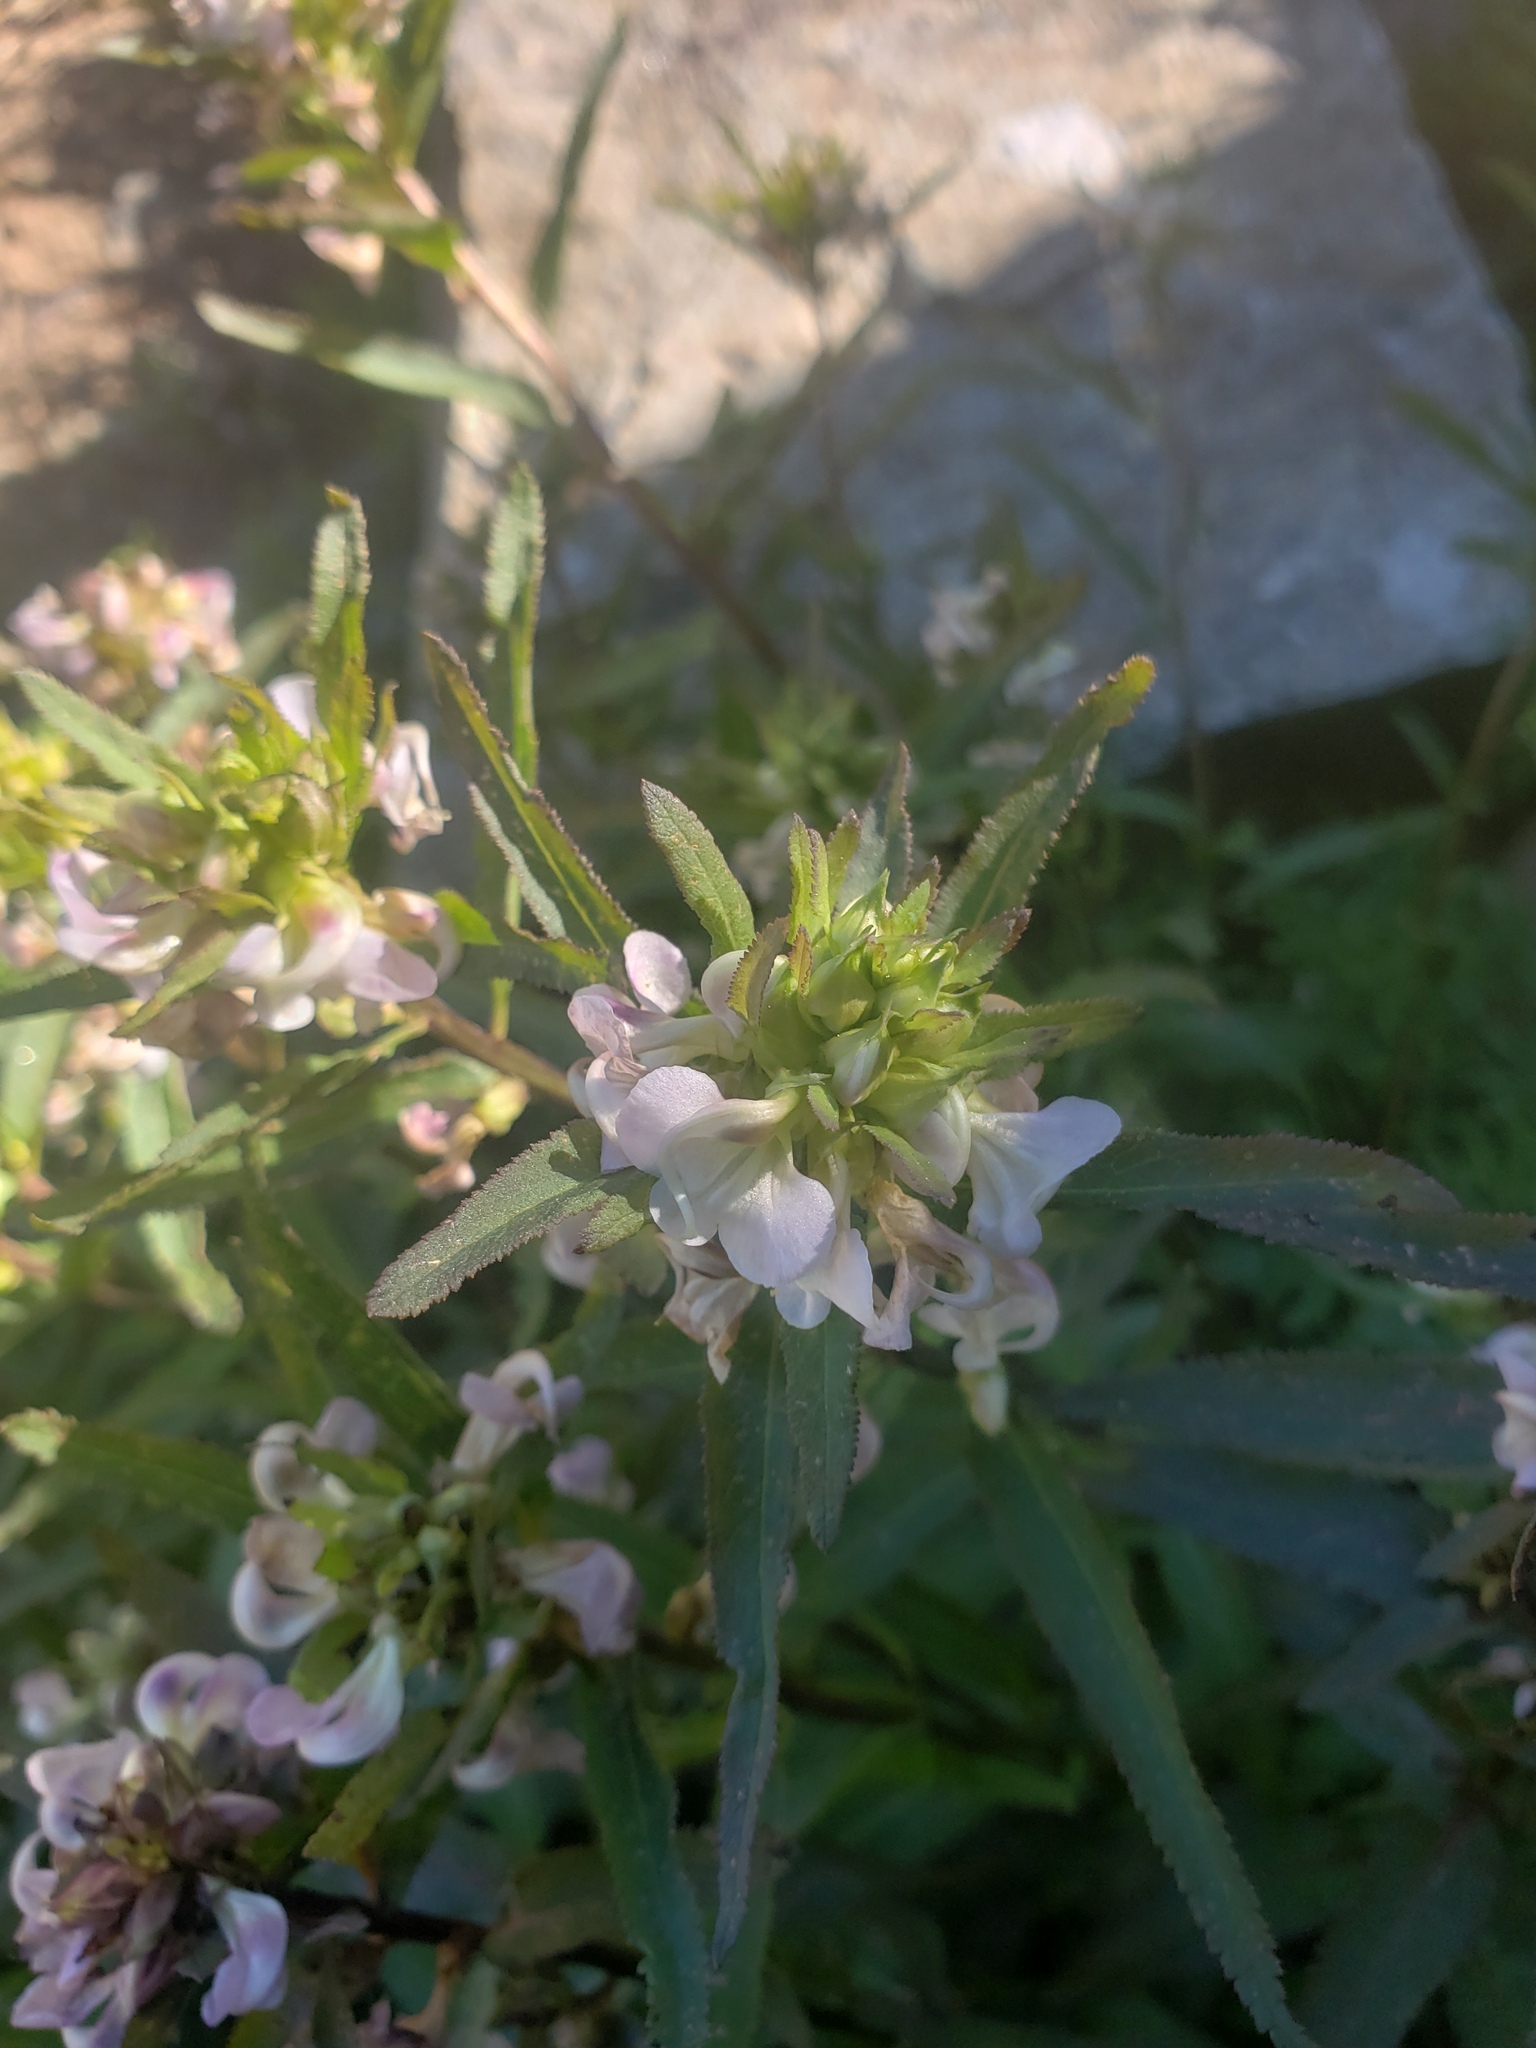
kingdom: Plantae
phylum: Tracheophyta
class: Magnoliopsida
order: Lamiales
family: Orobanchaceae
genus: Pedicularis
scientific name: Pedicularis racemosa
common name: Leafy lousewort
